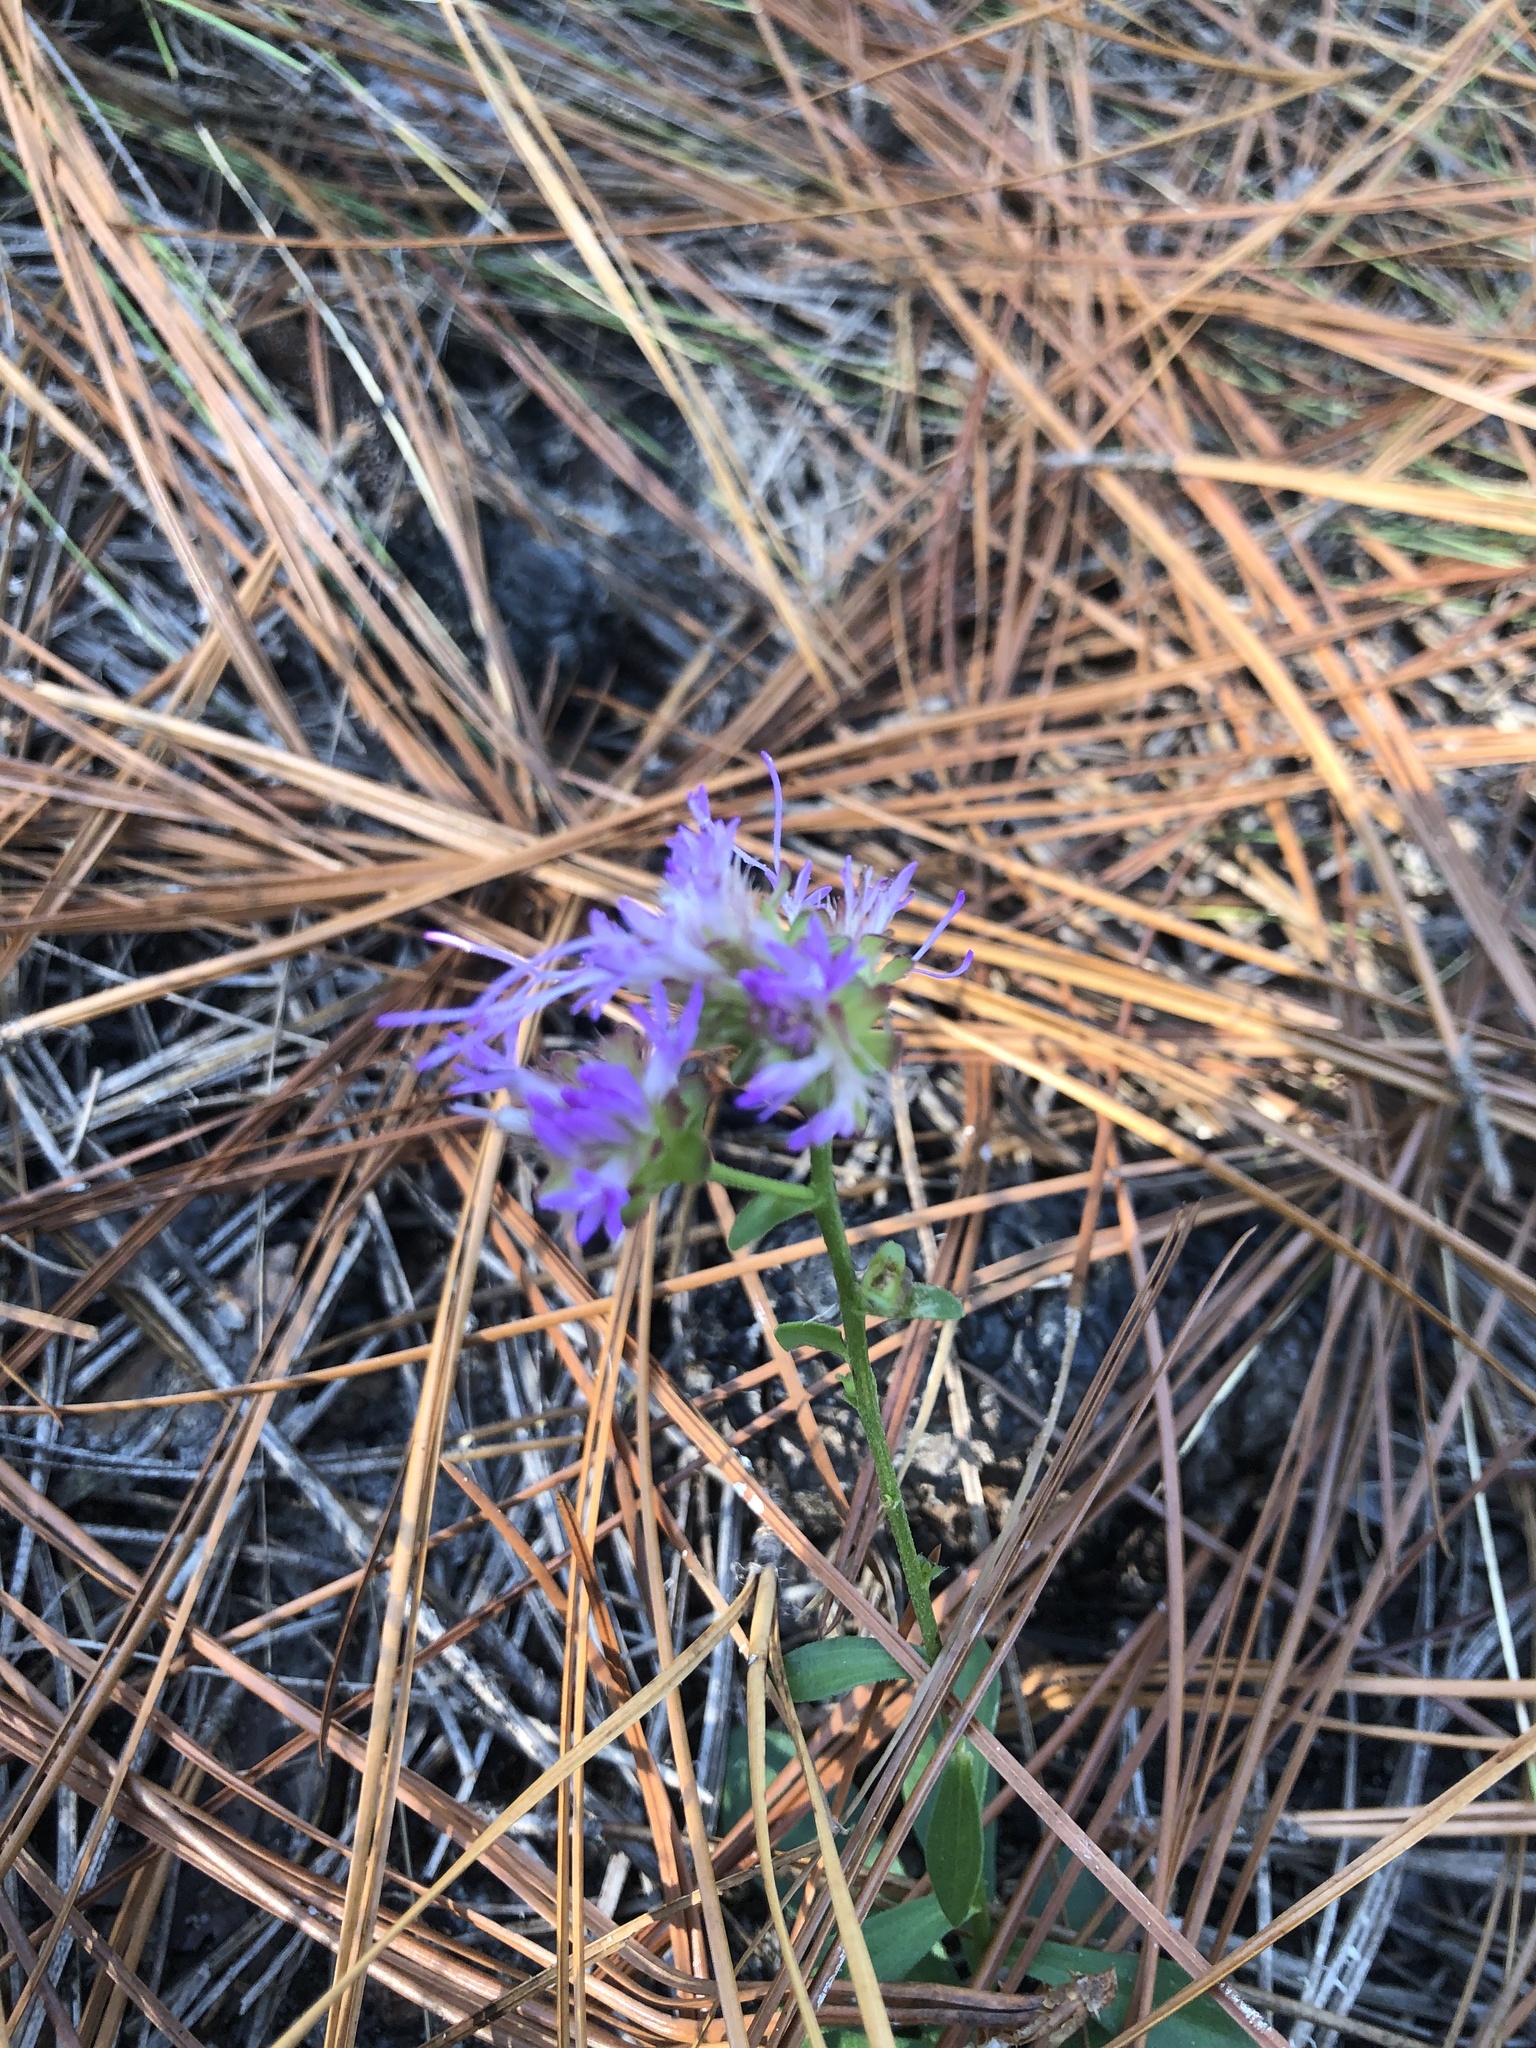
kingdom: Plantae
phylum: Tracheophyta
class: Magnoliopsida
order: Asterales
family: Asteraceae
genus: Carphephorus
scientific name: Carphephorus bellidifolius
